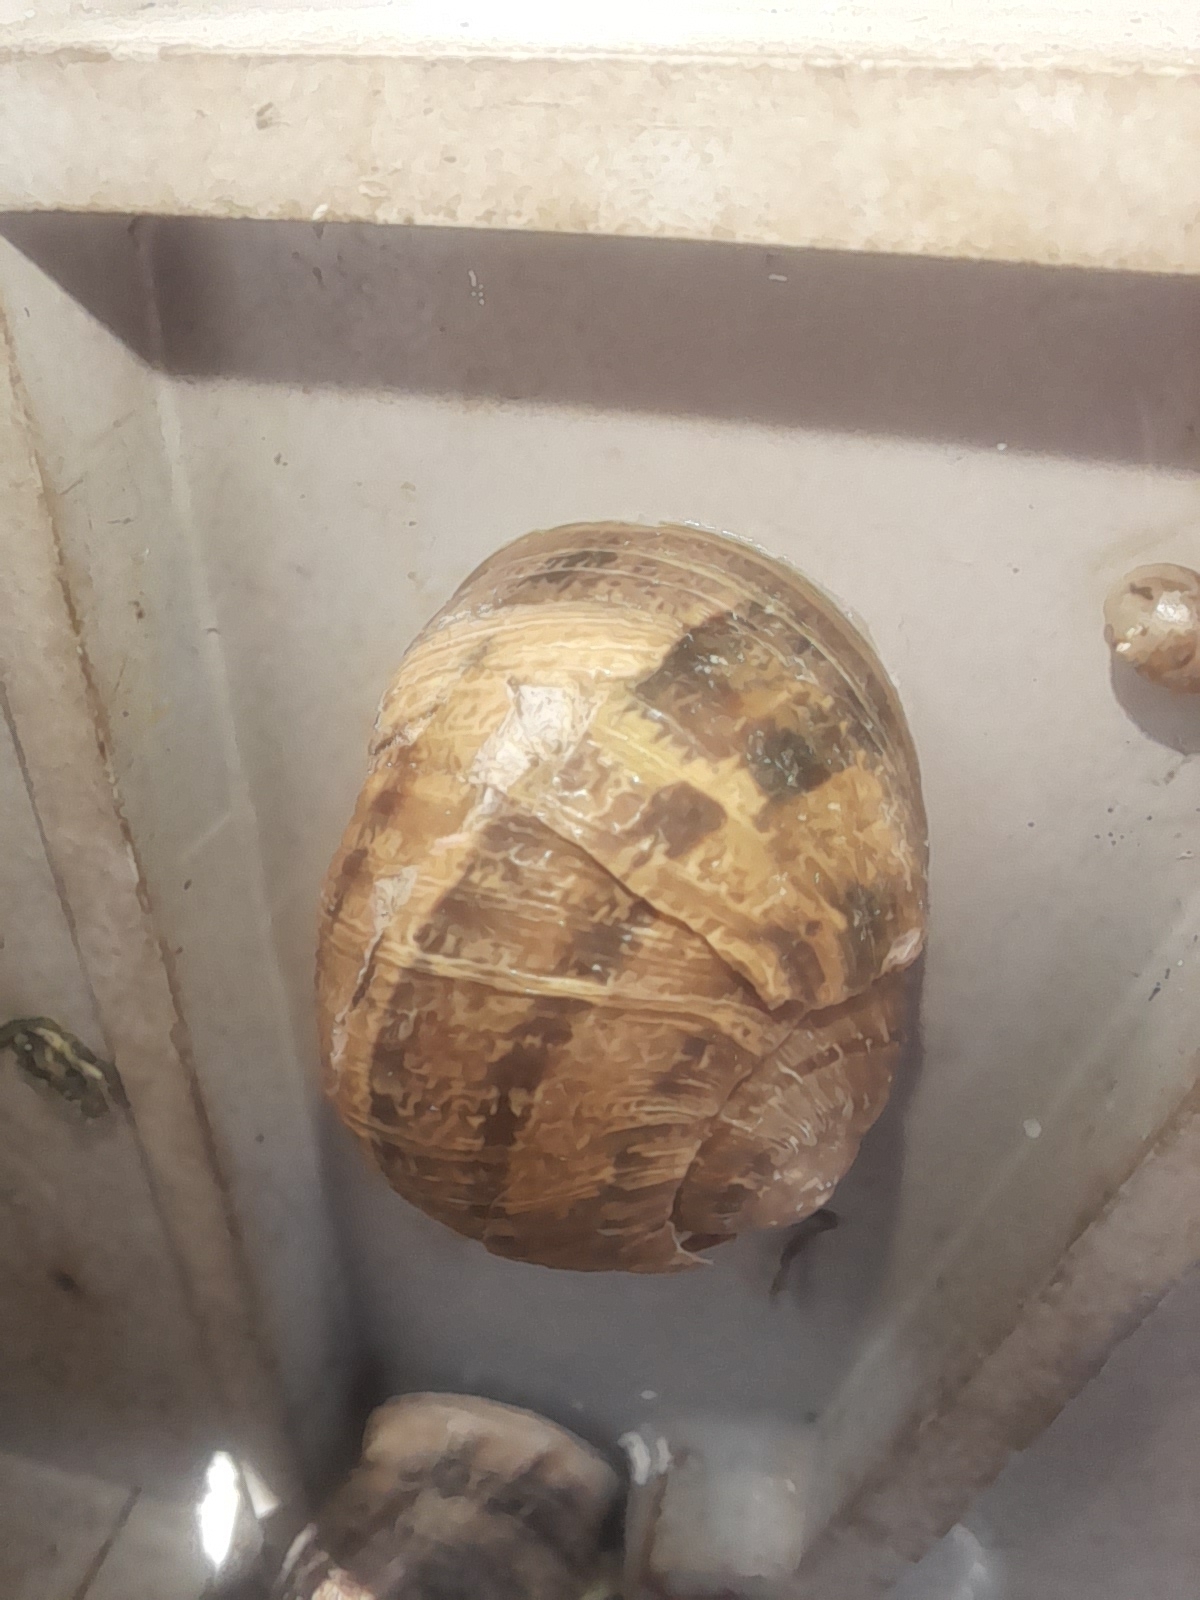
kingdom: Animalia
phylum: Mollusca
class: Gastropoda
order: Stylommatophora
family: Helicidae
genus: Cornu
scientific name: Cornu aspersum
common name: Brown garden snail
